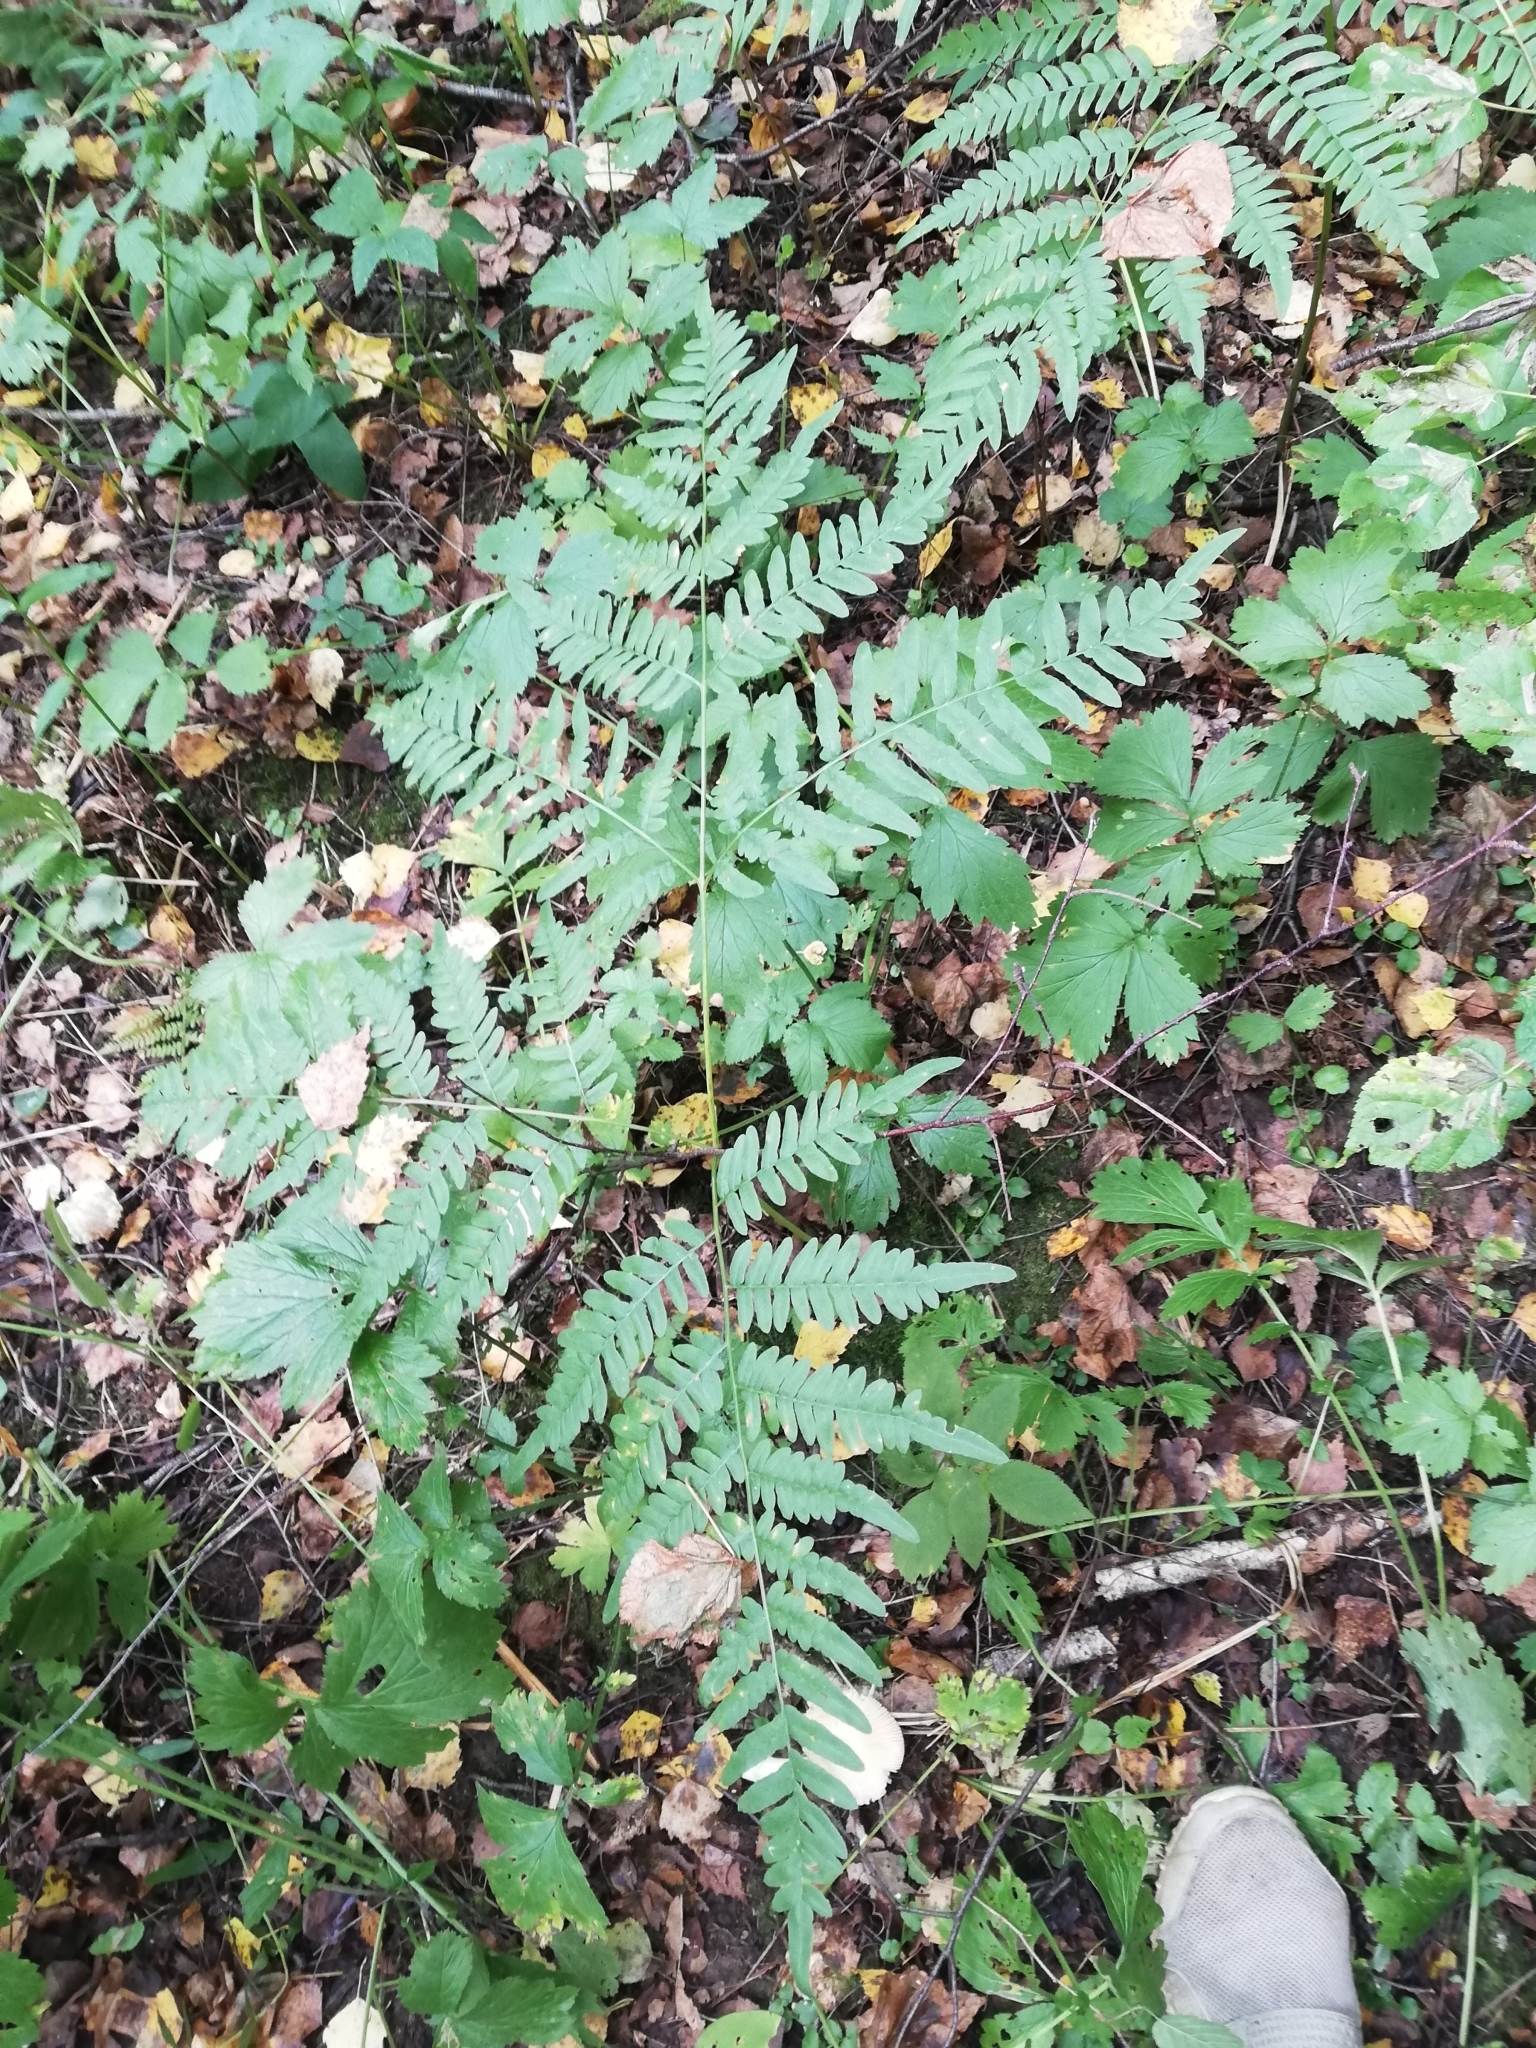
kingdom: Plantae
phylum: Tracheophyta
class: Polypodiopsida
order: Polypodiales
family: Dennstaedtiaceae
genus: Pteridium
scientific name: Pteridium aquilinum
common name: Bracken
